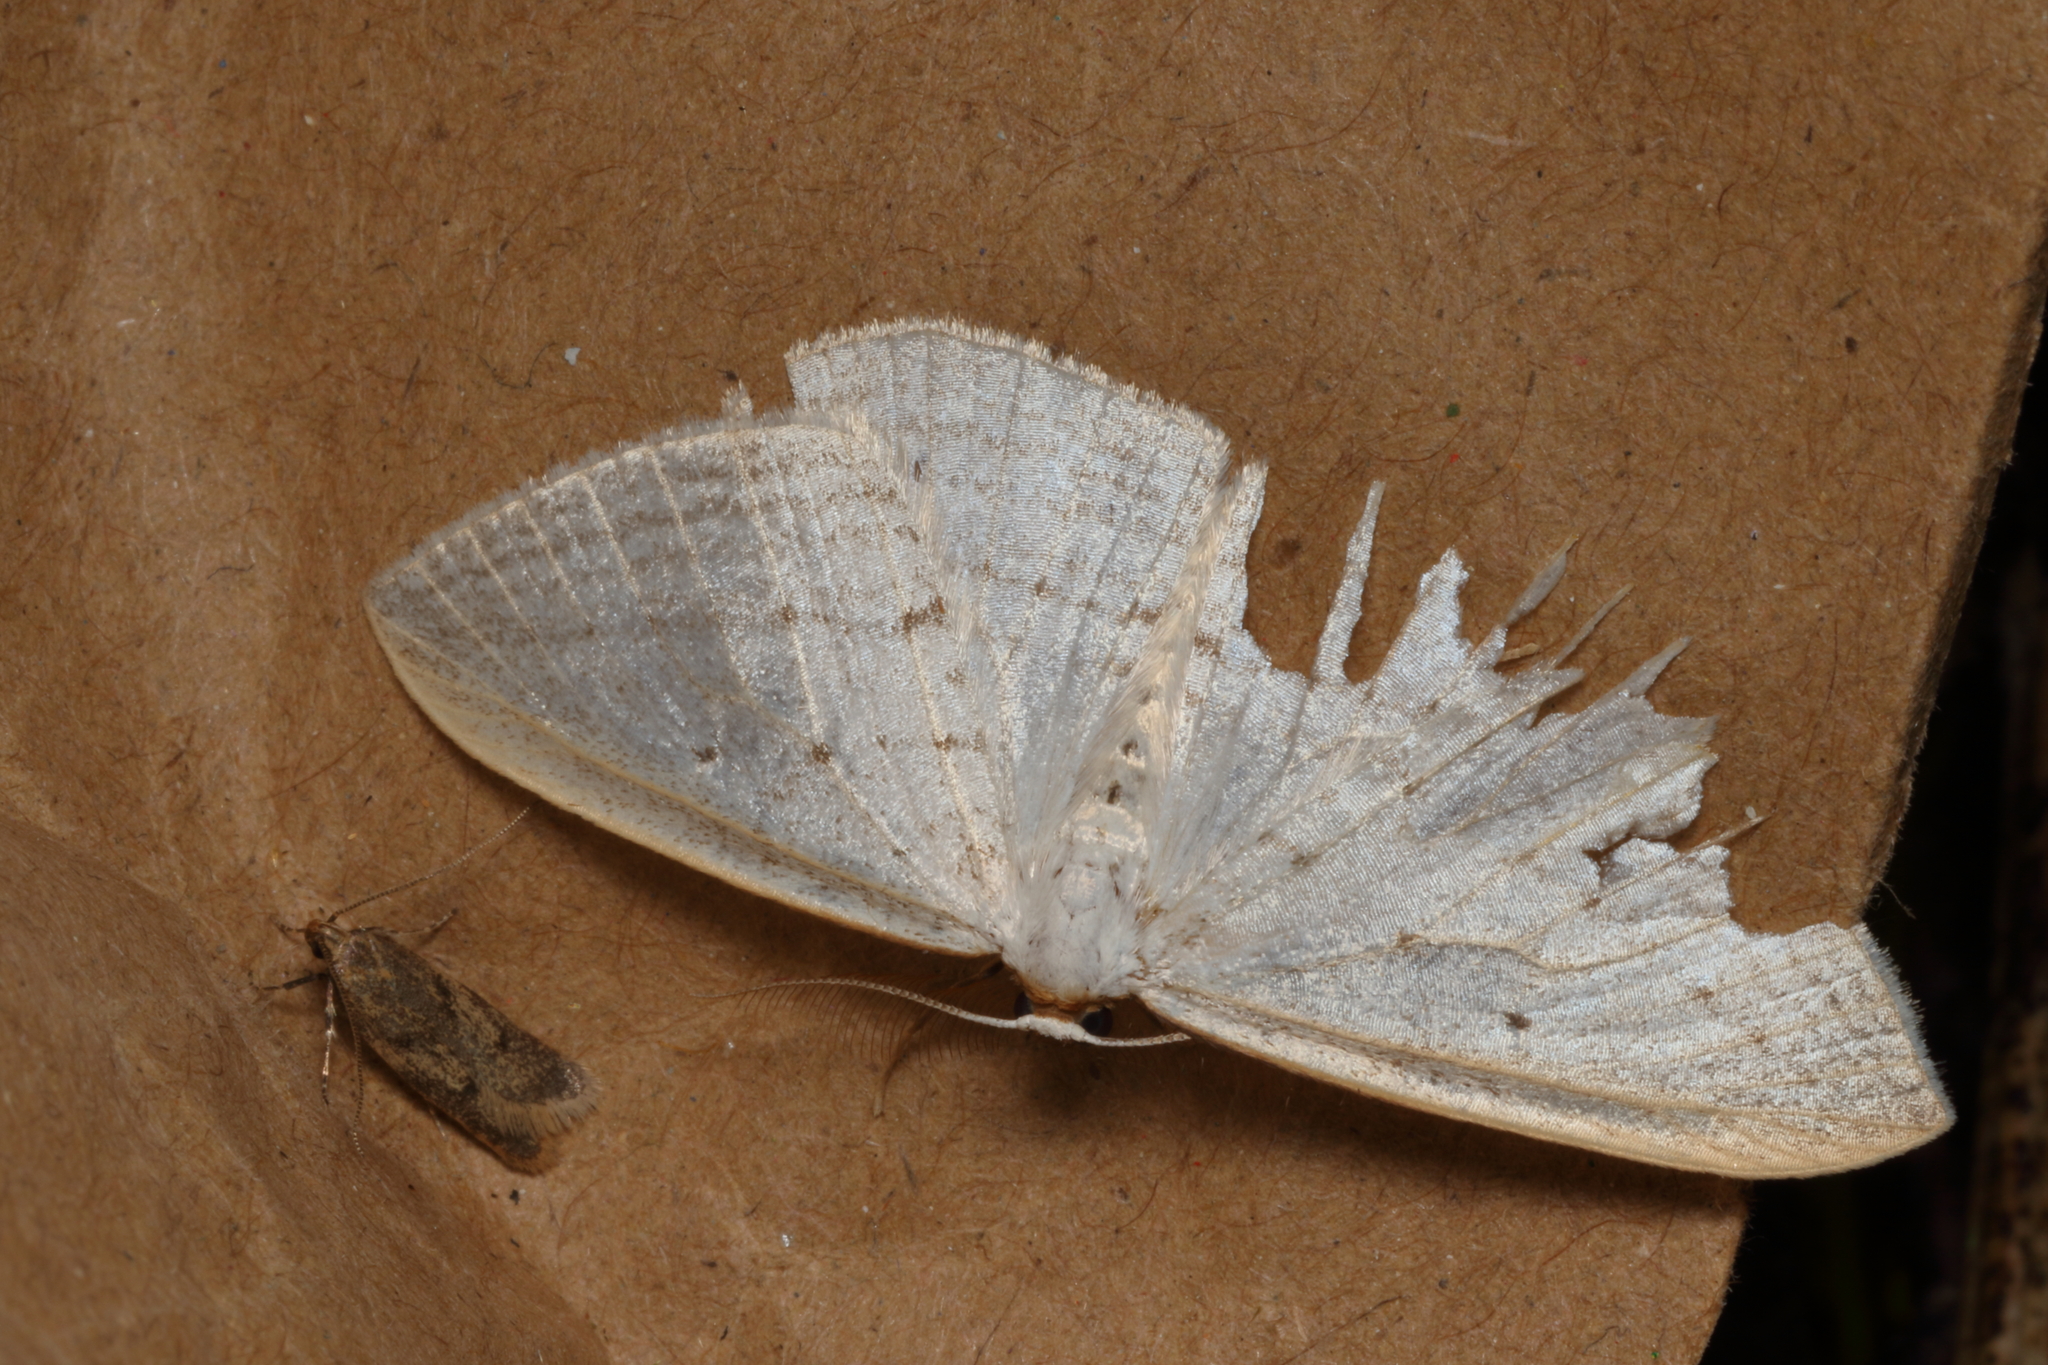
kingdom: Animalia
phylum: Arthropoda
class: Insecta
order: Lepidoptera
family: Geometridae
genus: Orthoclydon
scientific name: Orthoclydon praefectata
